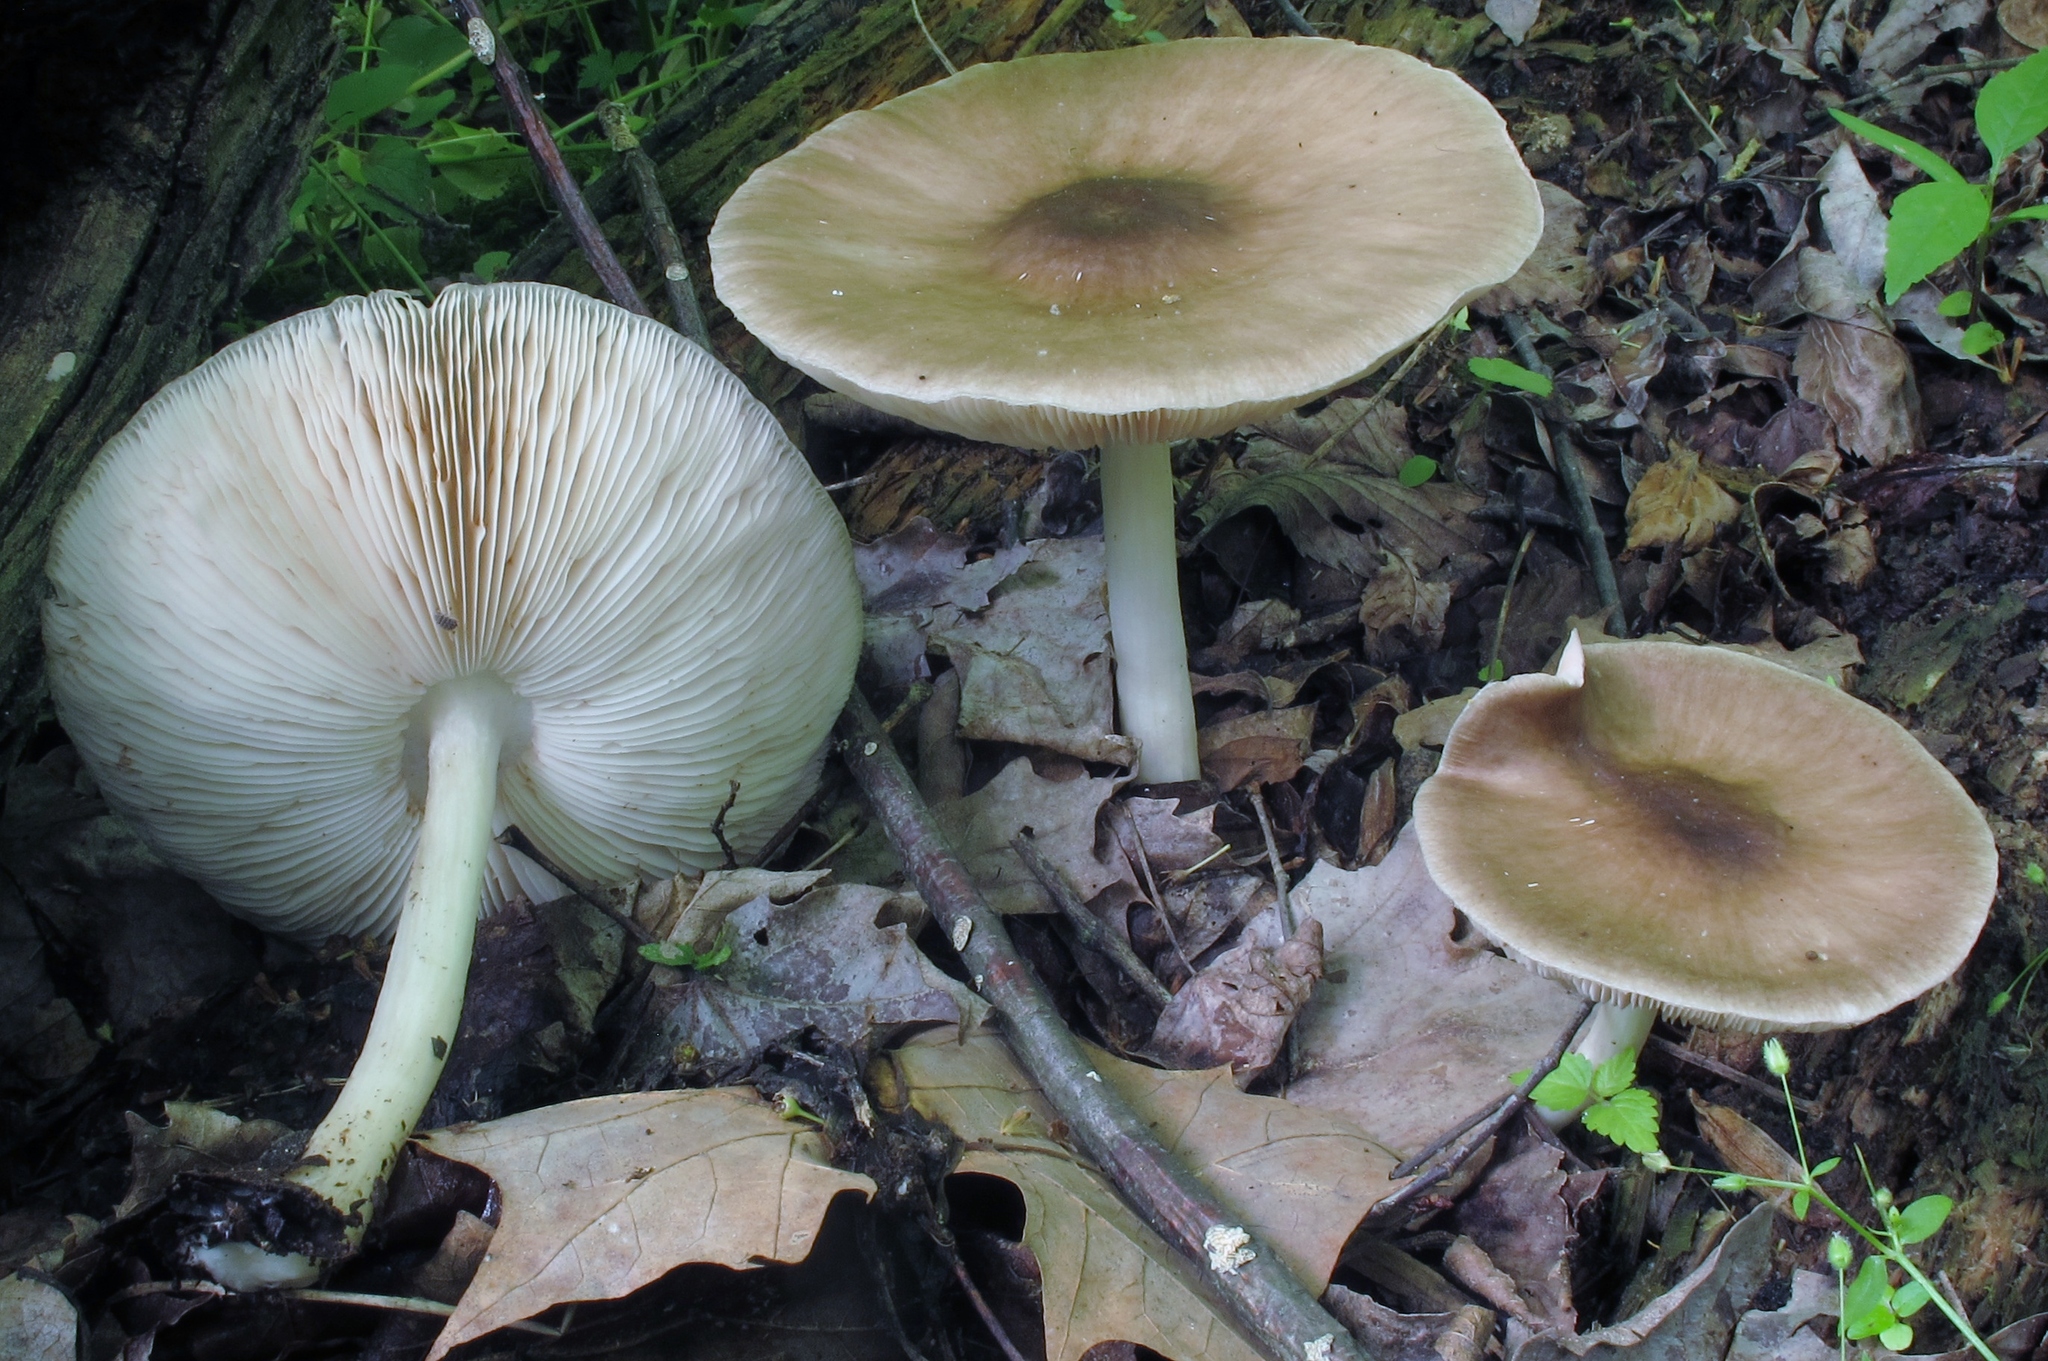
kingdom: Fungi
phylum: Basidiomycota
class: Agaricomycetes
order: Agaricales
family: Pluteaceae
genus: Pluteus
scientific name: Pluteus cervinus
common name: Deer shield
